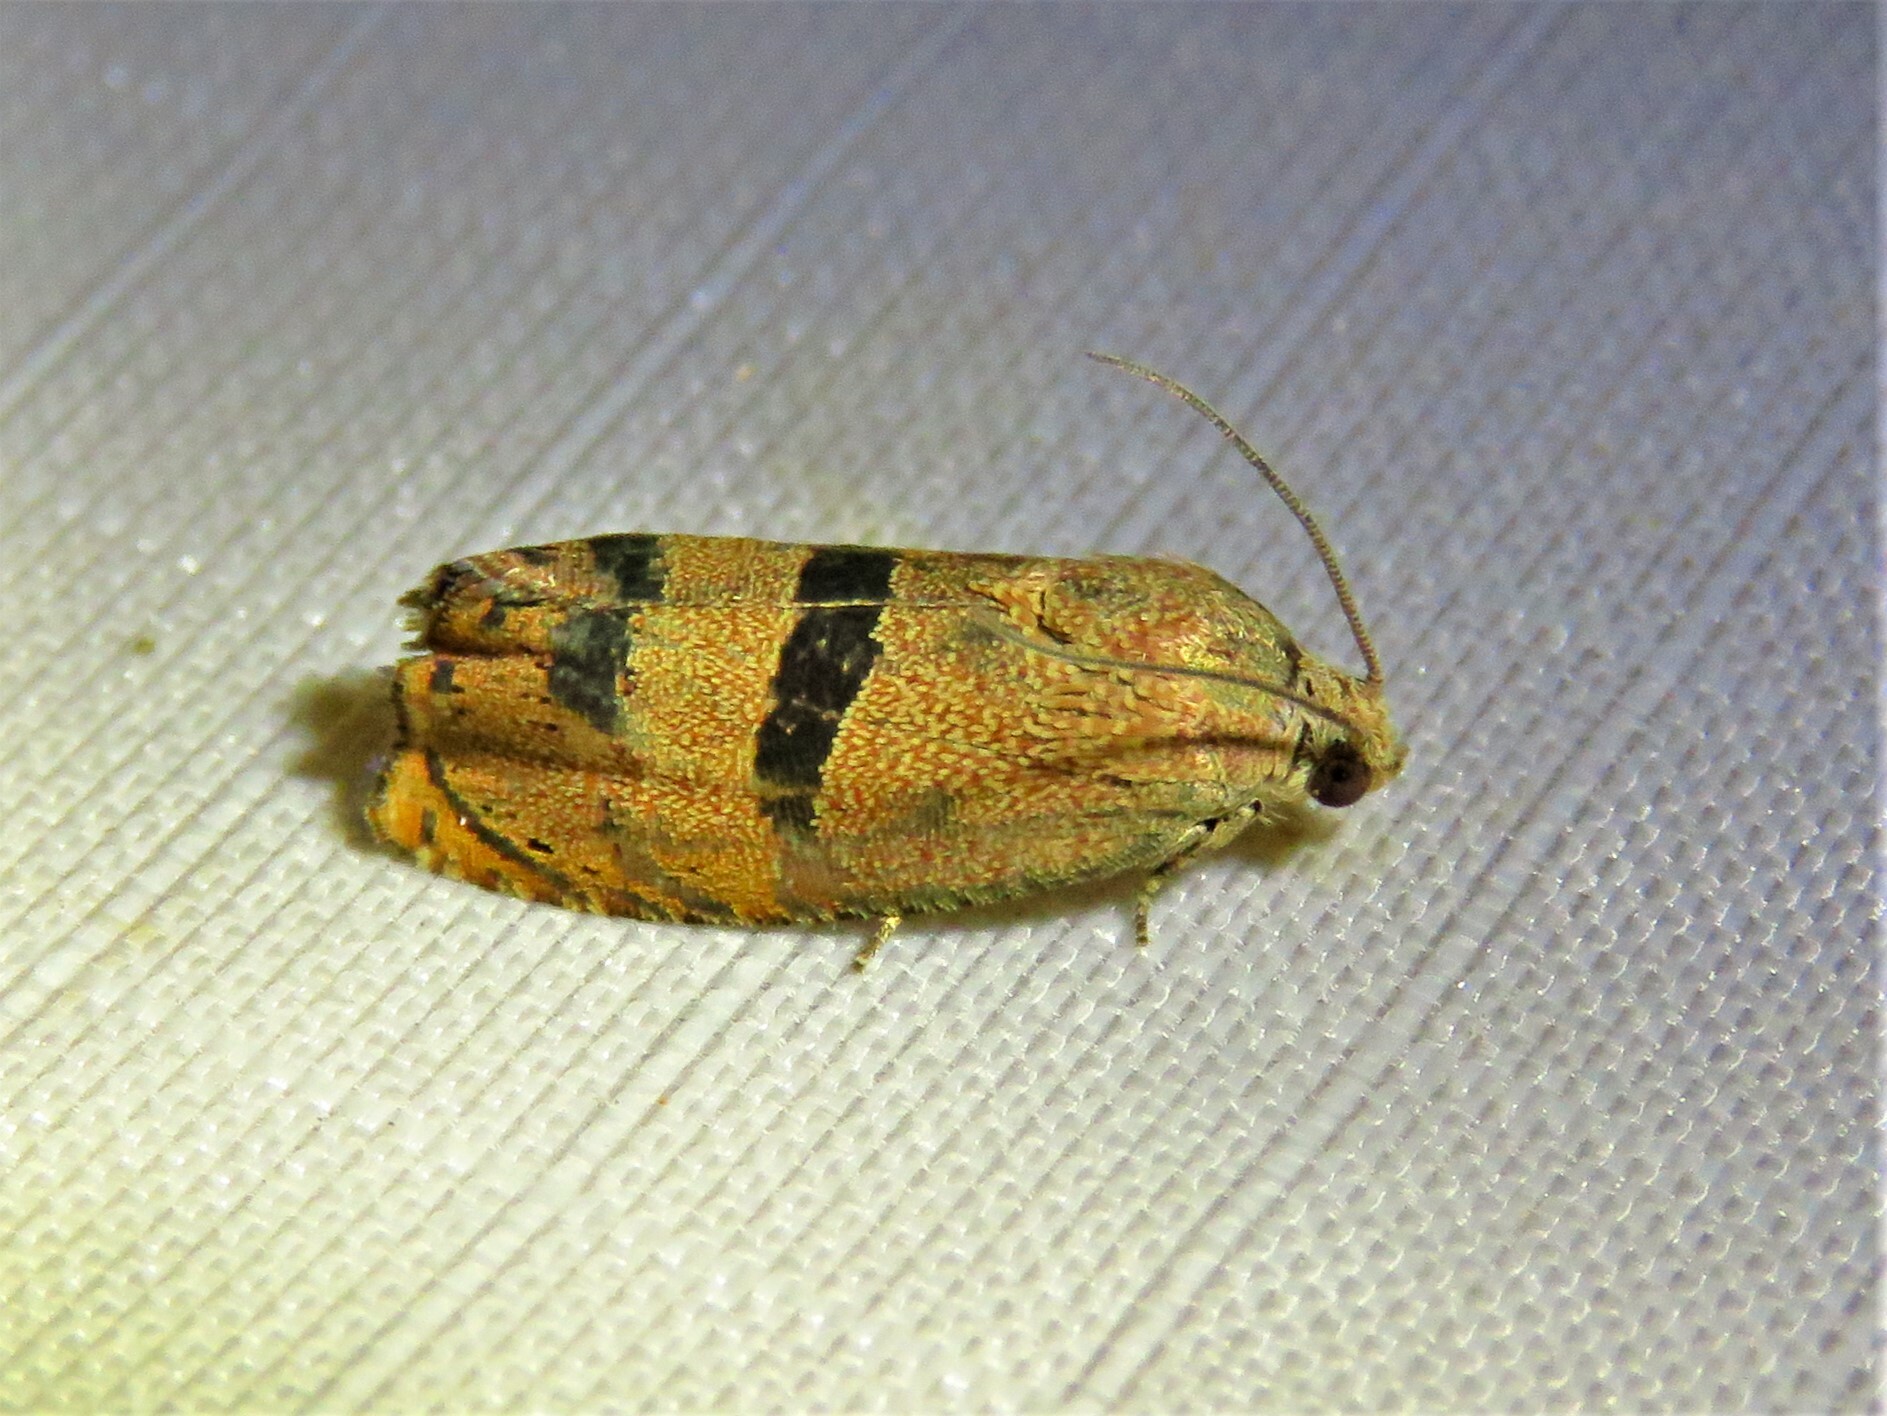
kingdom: Animalia
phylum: Arthropoda
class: Insecta
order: Lepidoptera
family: Tortricidae
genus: Cydia
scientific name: Cydia latiferreana
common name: Filbertworm moth
